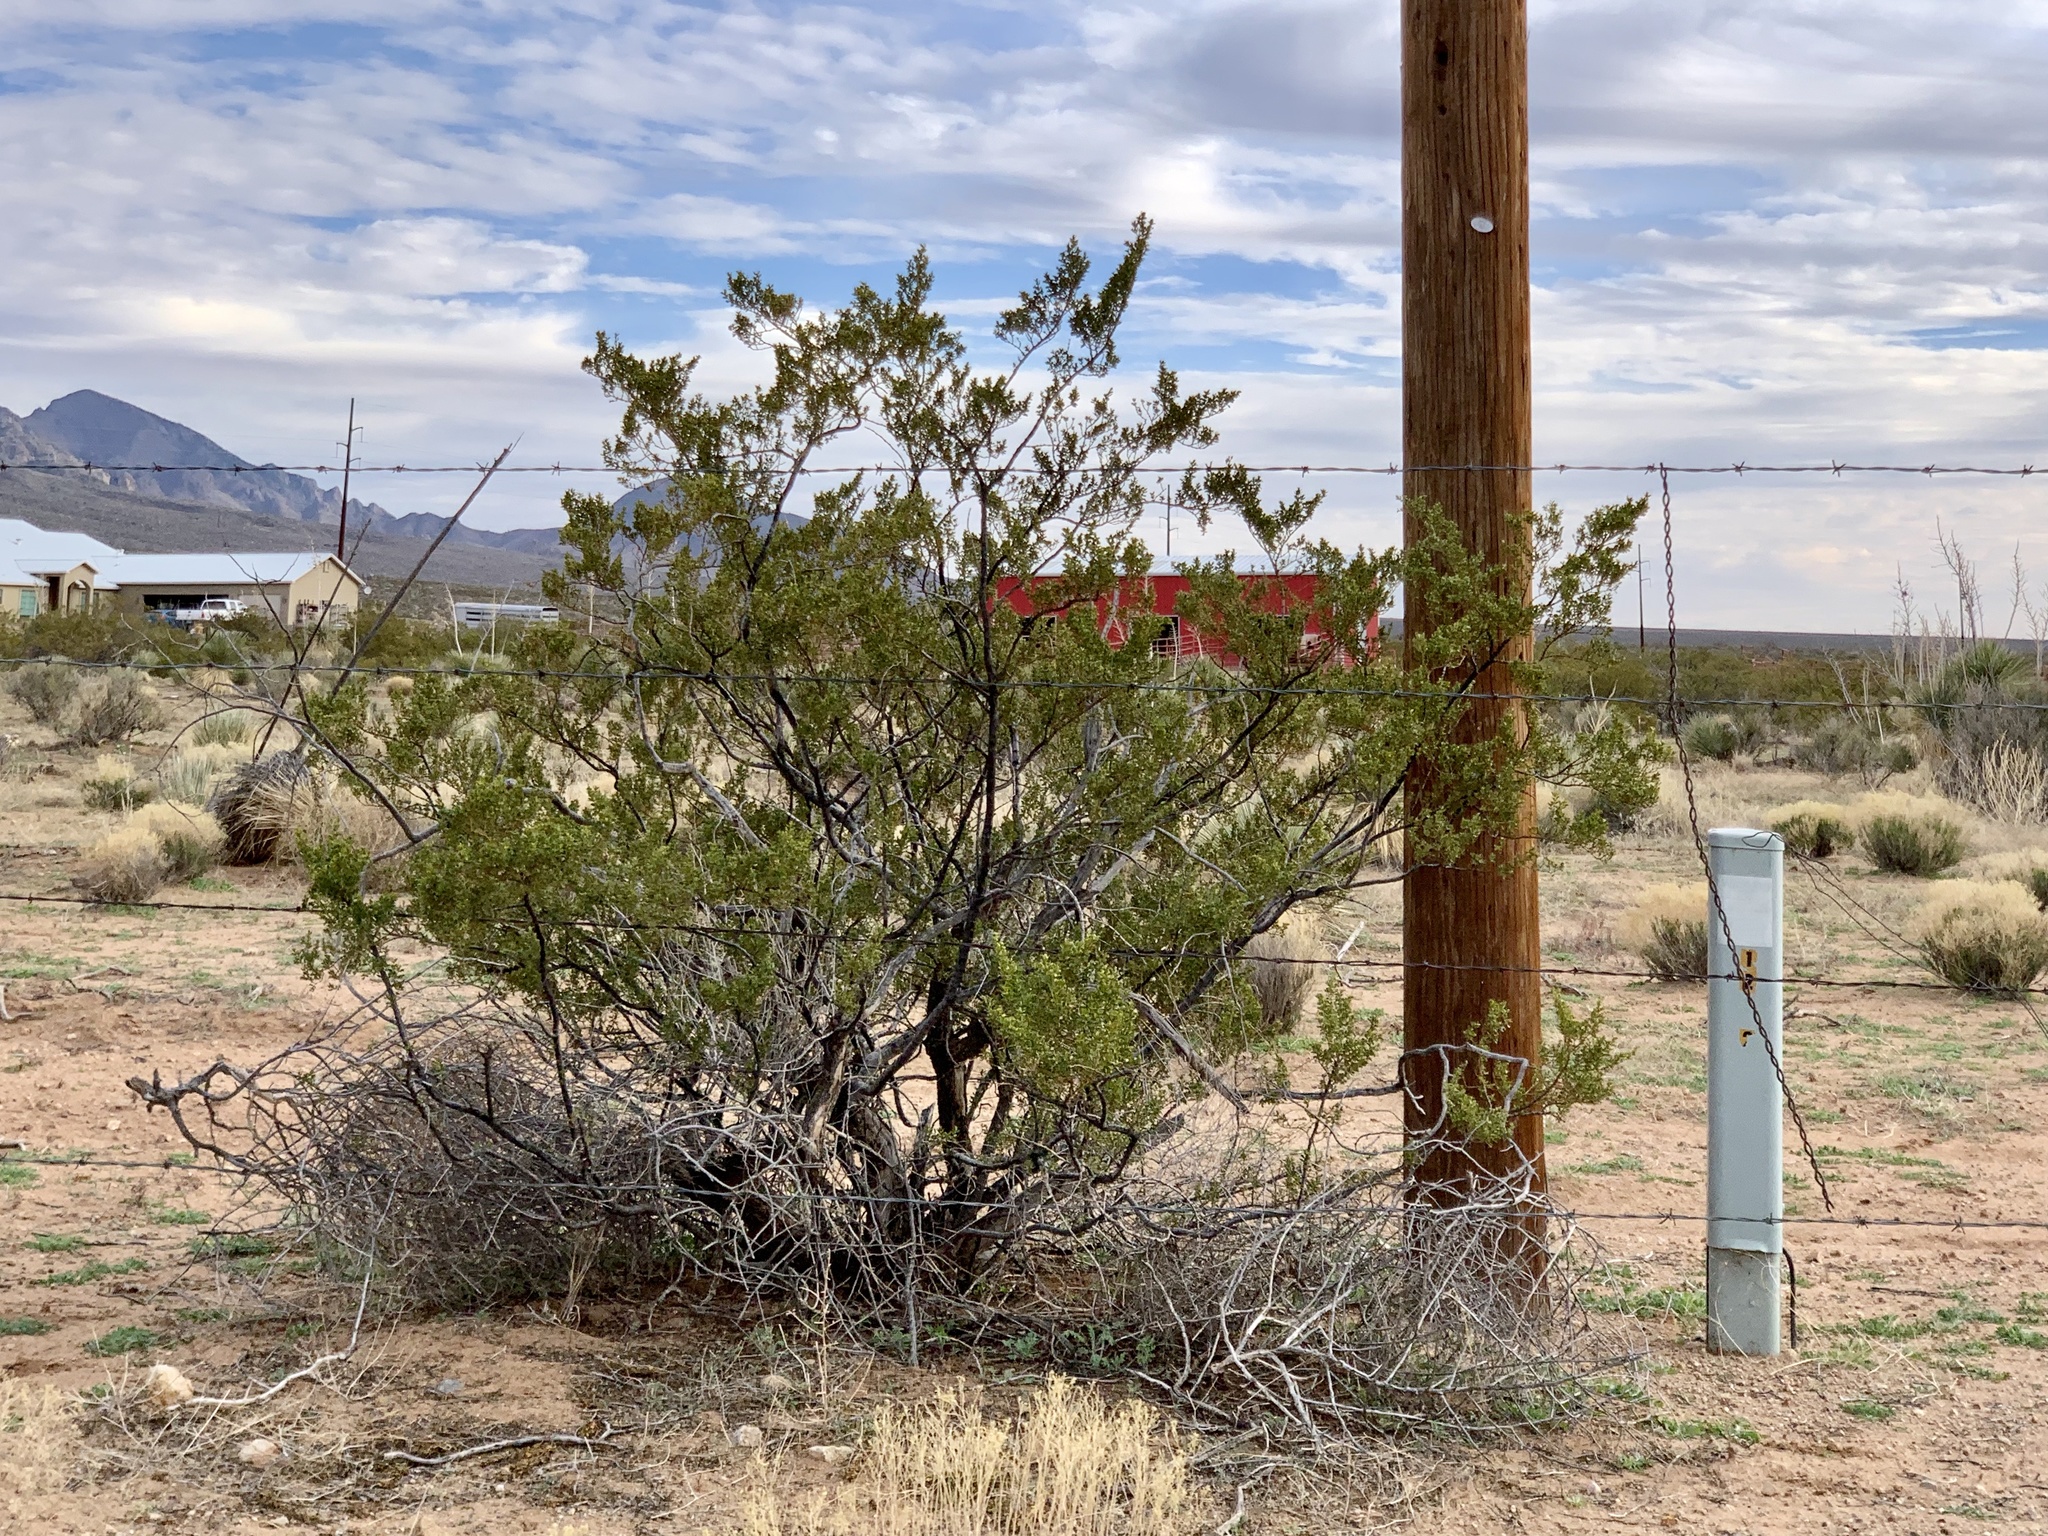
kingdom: Plantae
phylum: Tracheophyta
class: Magnoliopsida
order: Zygophyllales
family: Zygophyllaceae
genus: Larrea
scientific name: Larrea tridentata
